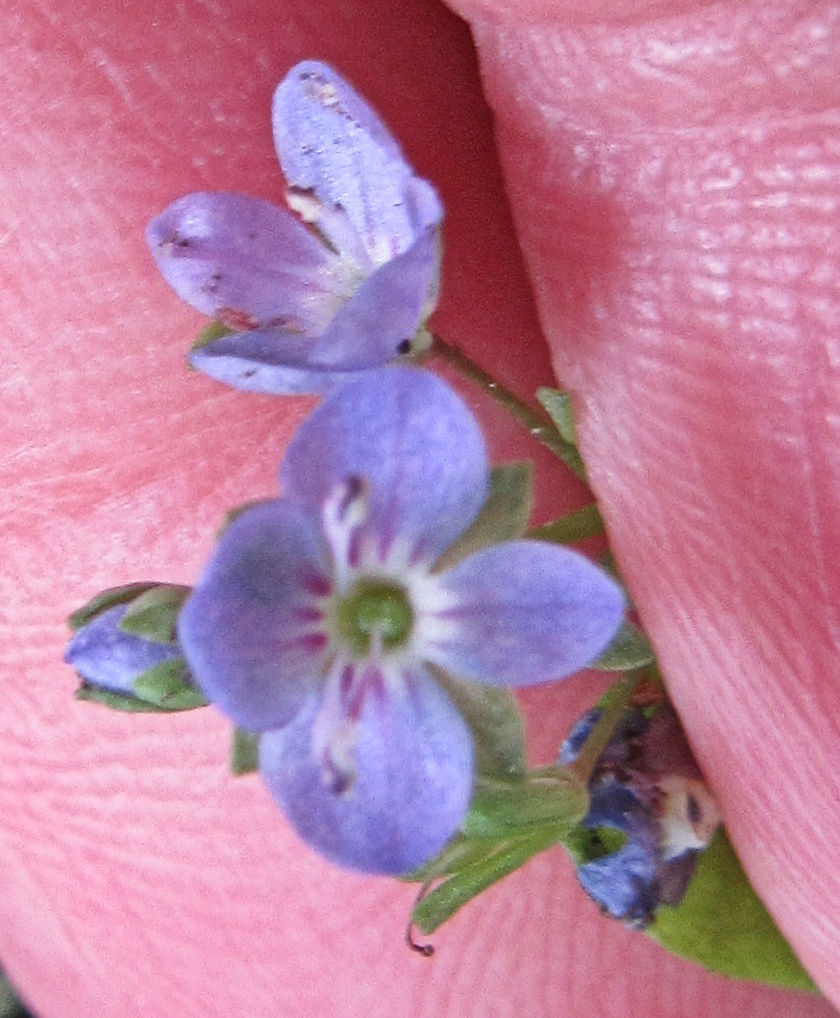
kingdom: Plantae
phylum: Tracheophyta
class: Magnoliopsida
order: Lamiales
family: Plantaginaceae
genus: Veronica
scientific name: Veronica americana
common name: American brooklime
